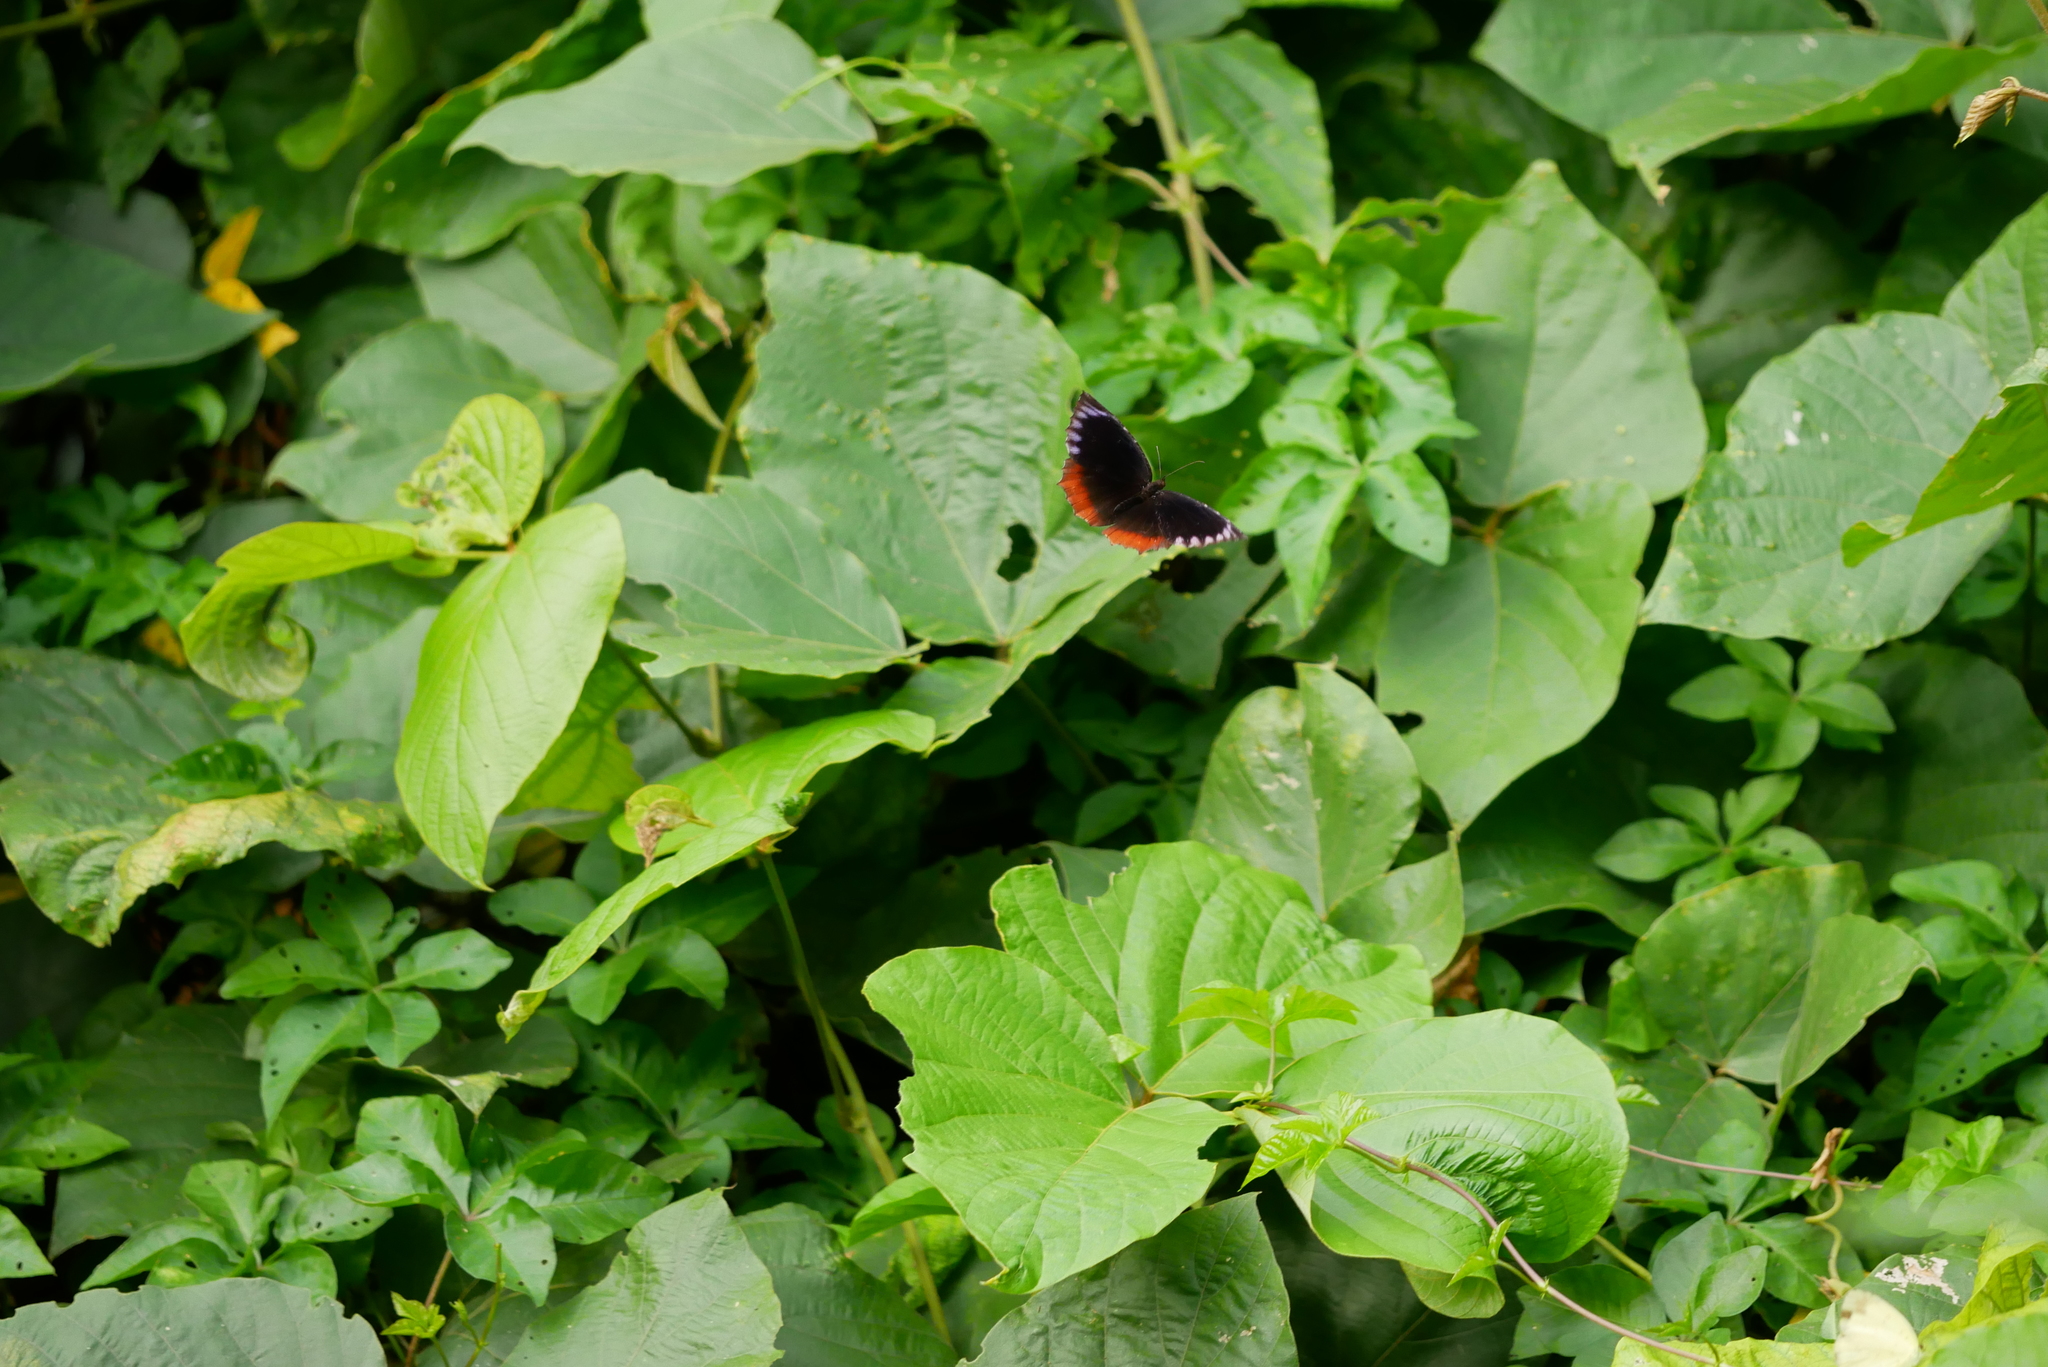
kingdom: Animalia
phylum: Arthropoda
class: Insecta
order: Lepidoptera
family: Nymphalidae
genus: Elymnias
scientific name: Elymnias hypermnestra
